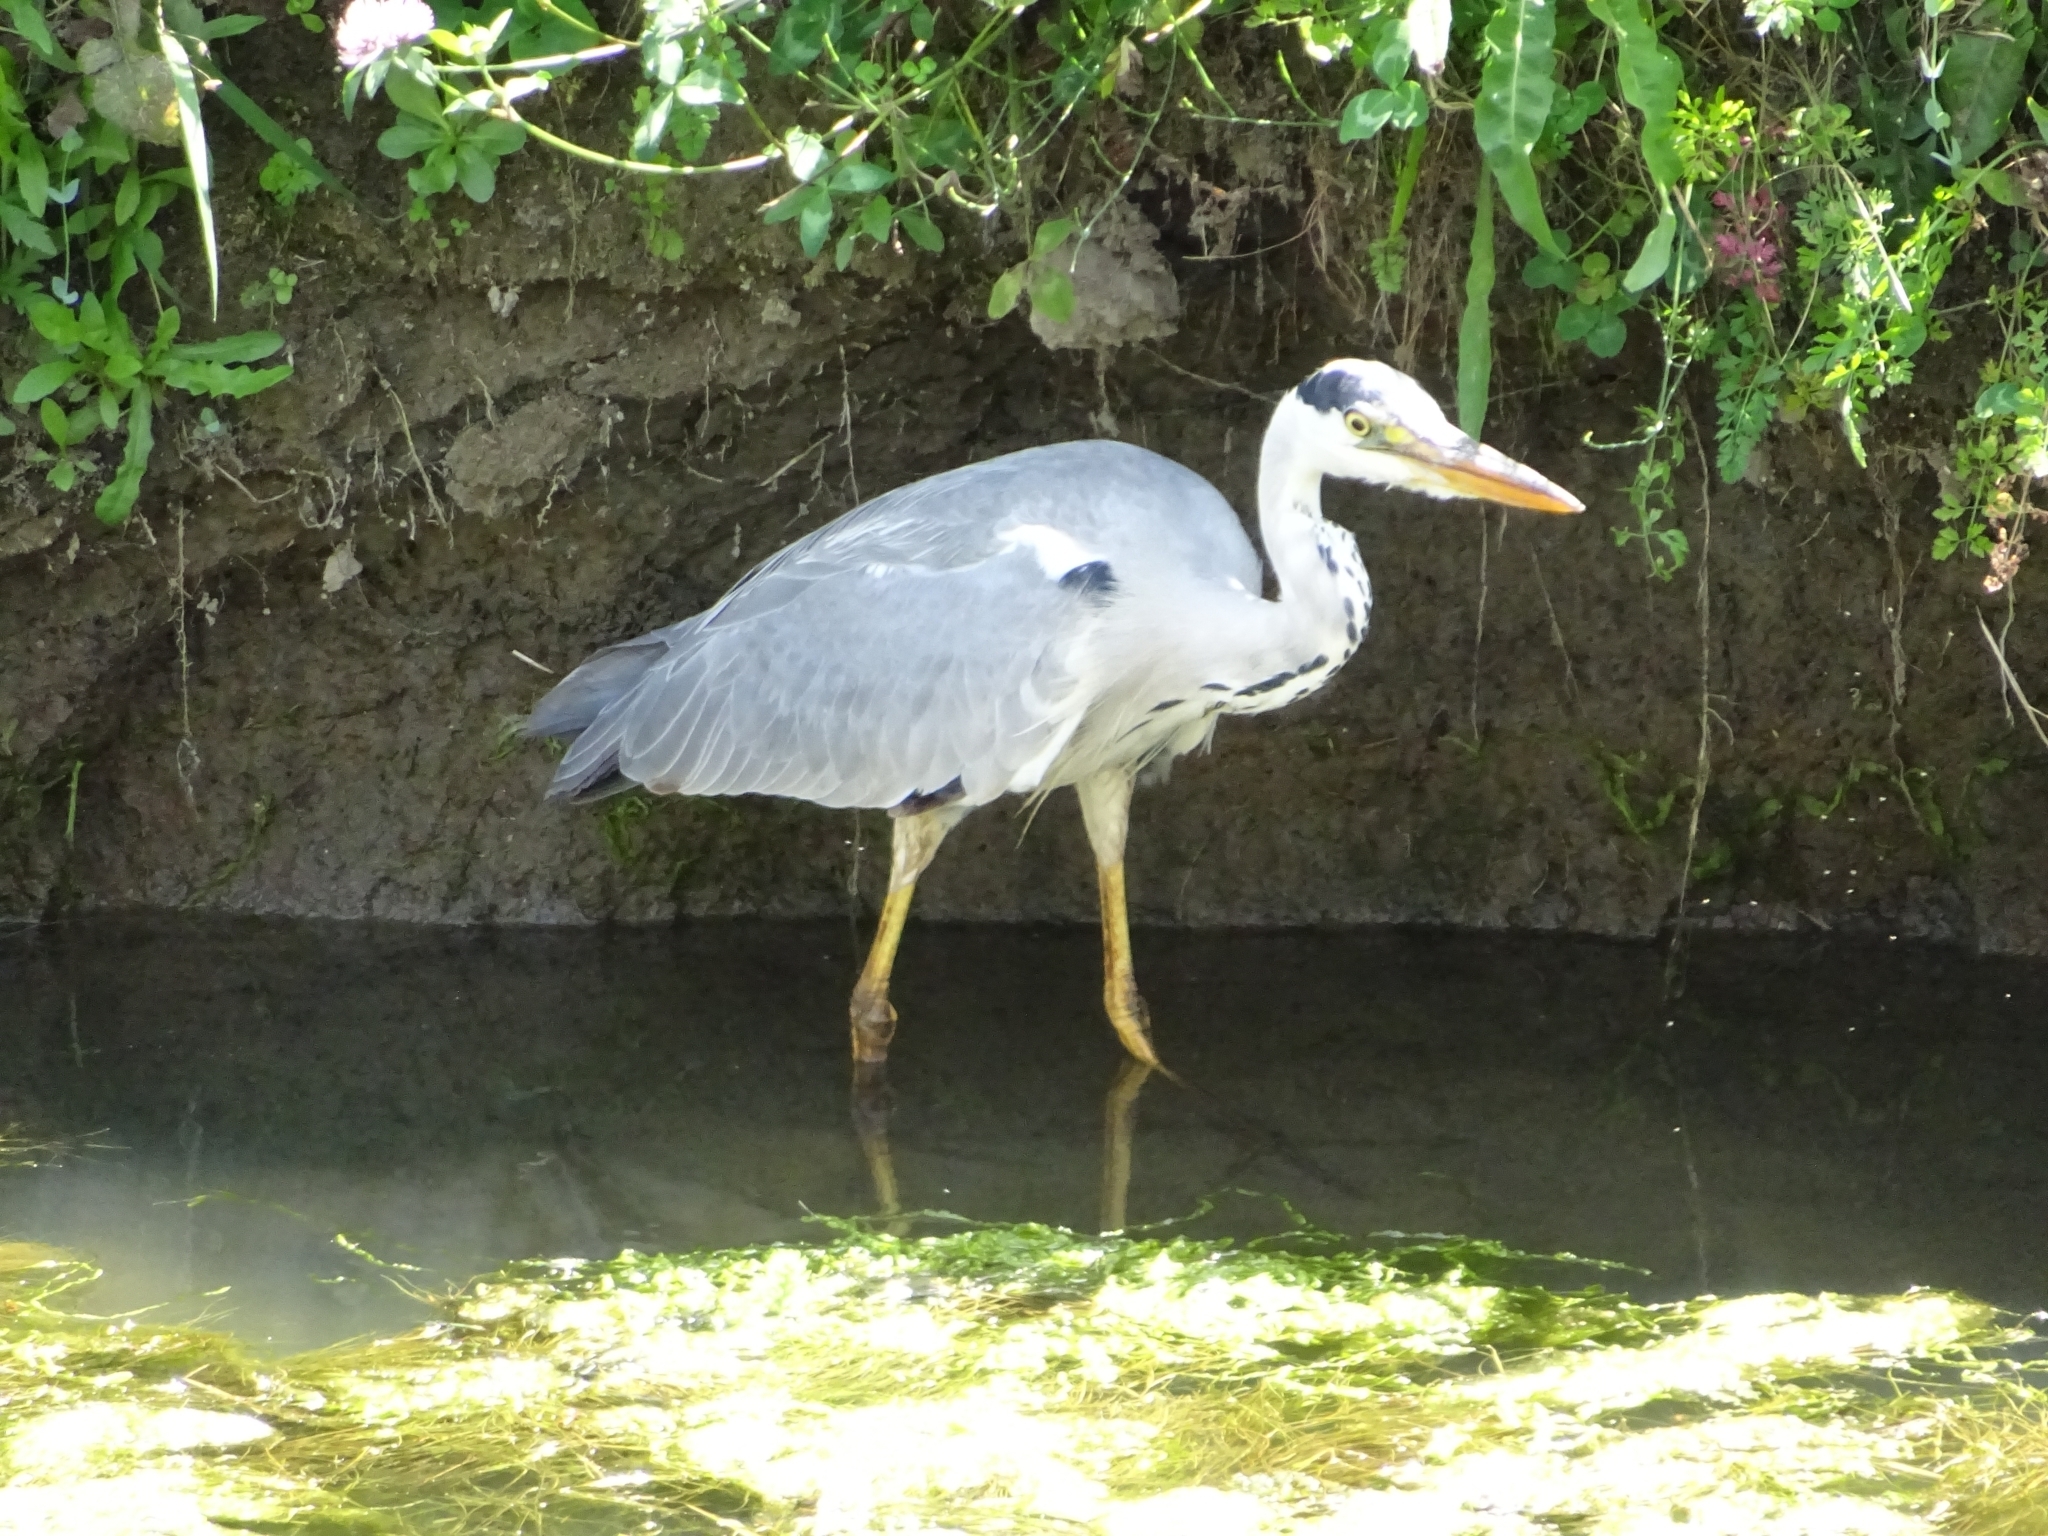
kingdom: Animalia
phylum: Chordata
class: Aves
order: Pelecaniformes
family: Ardeidae
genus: Ardea
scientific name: Ardea cinerea
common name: Grey heron
